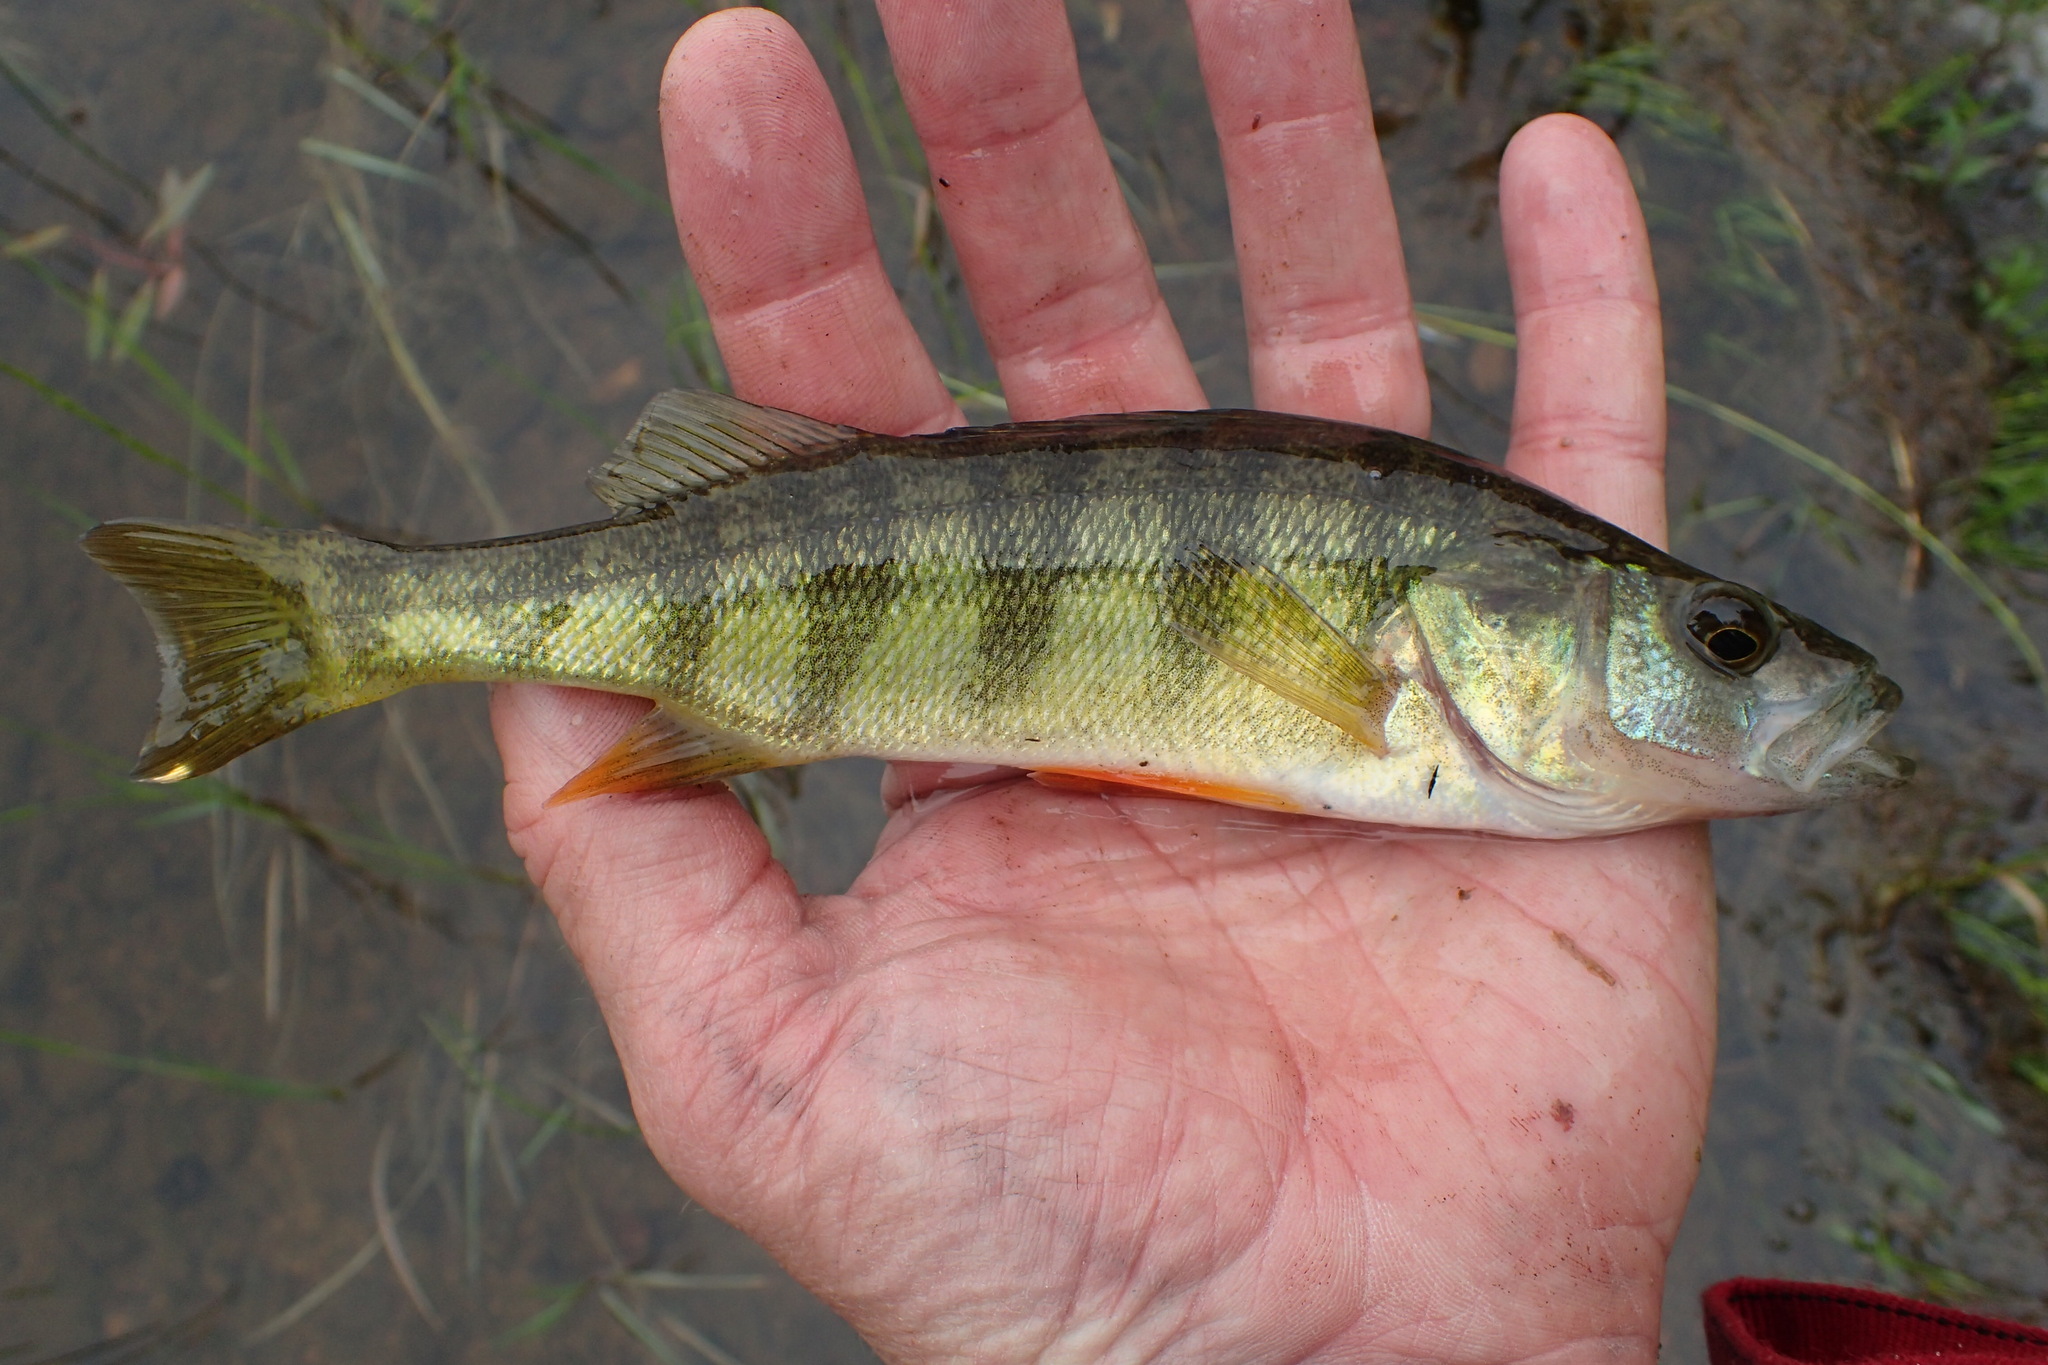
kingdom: Animalia
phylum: Chordata
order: Perciformes
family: Percidae
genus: Perca
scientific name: Perca flavescens
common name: Yellow perch
